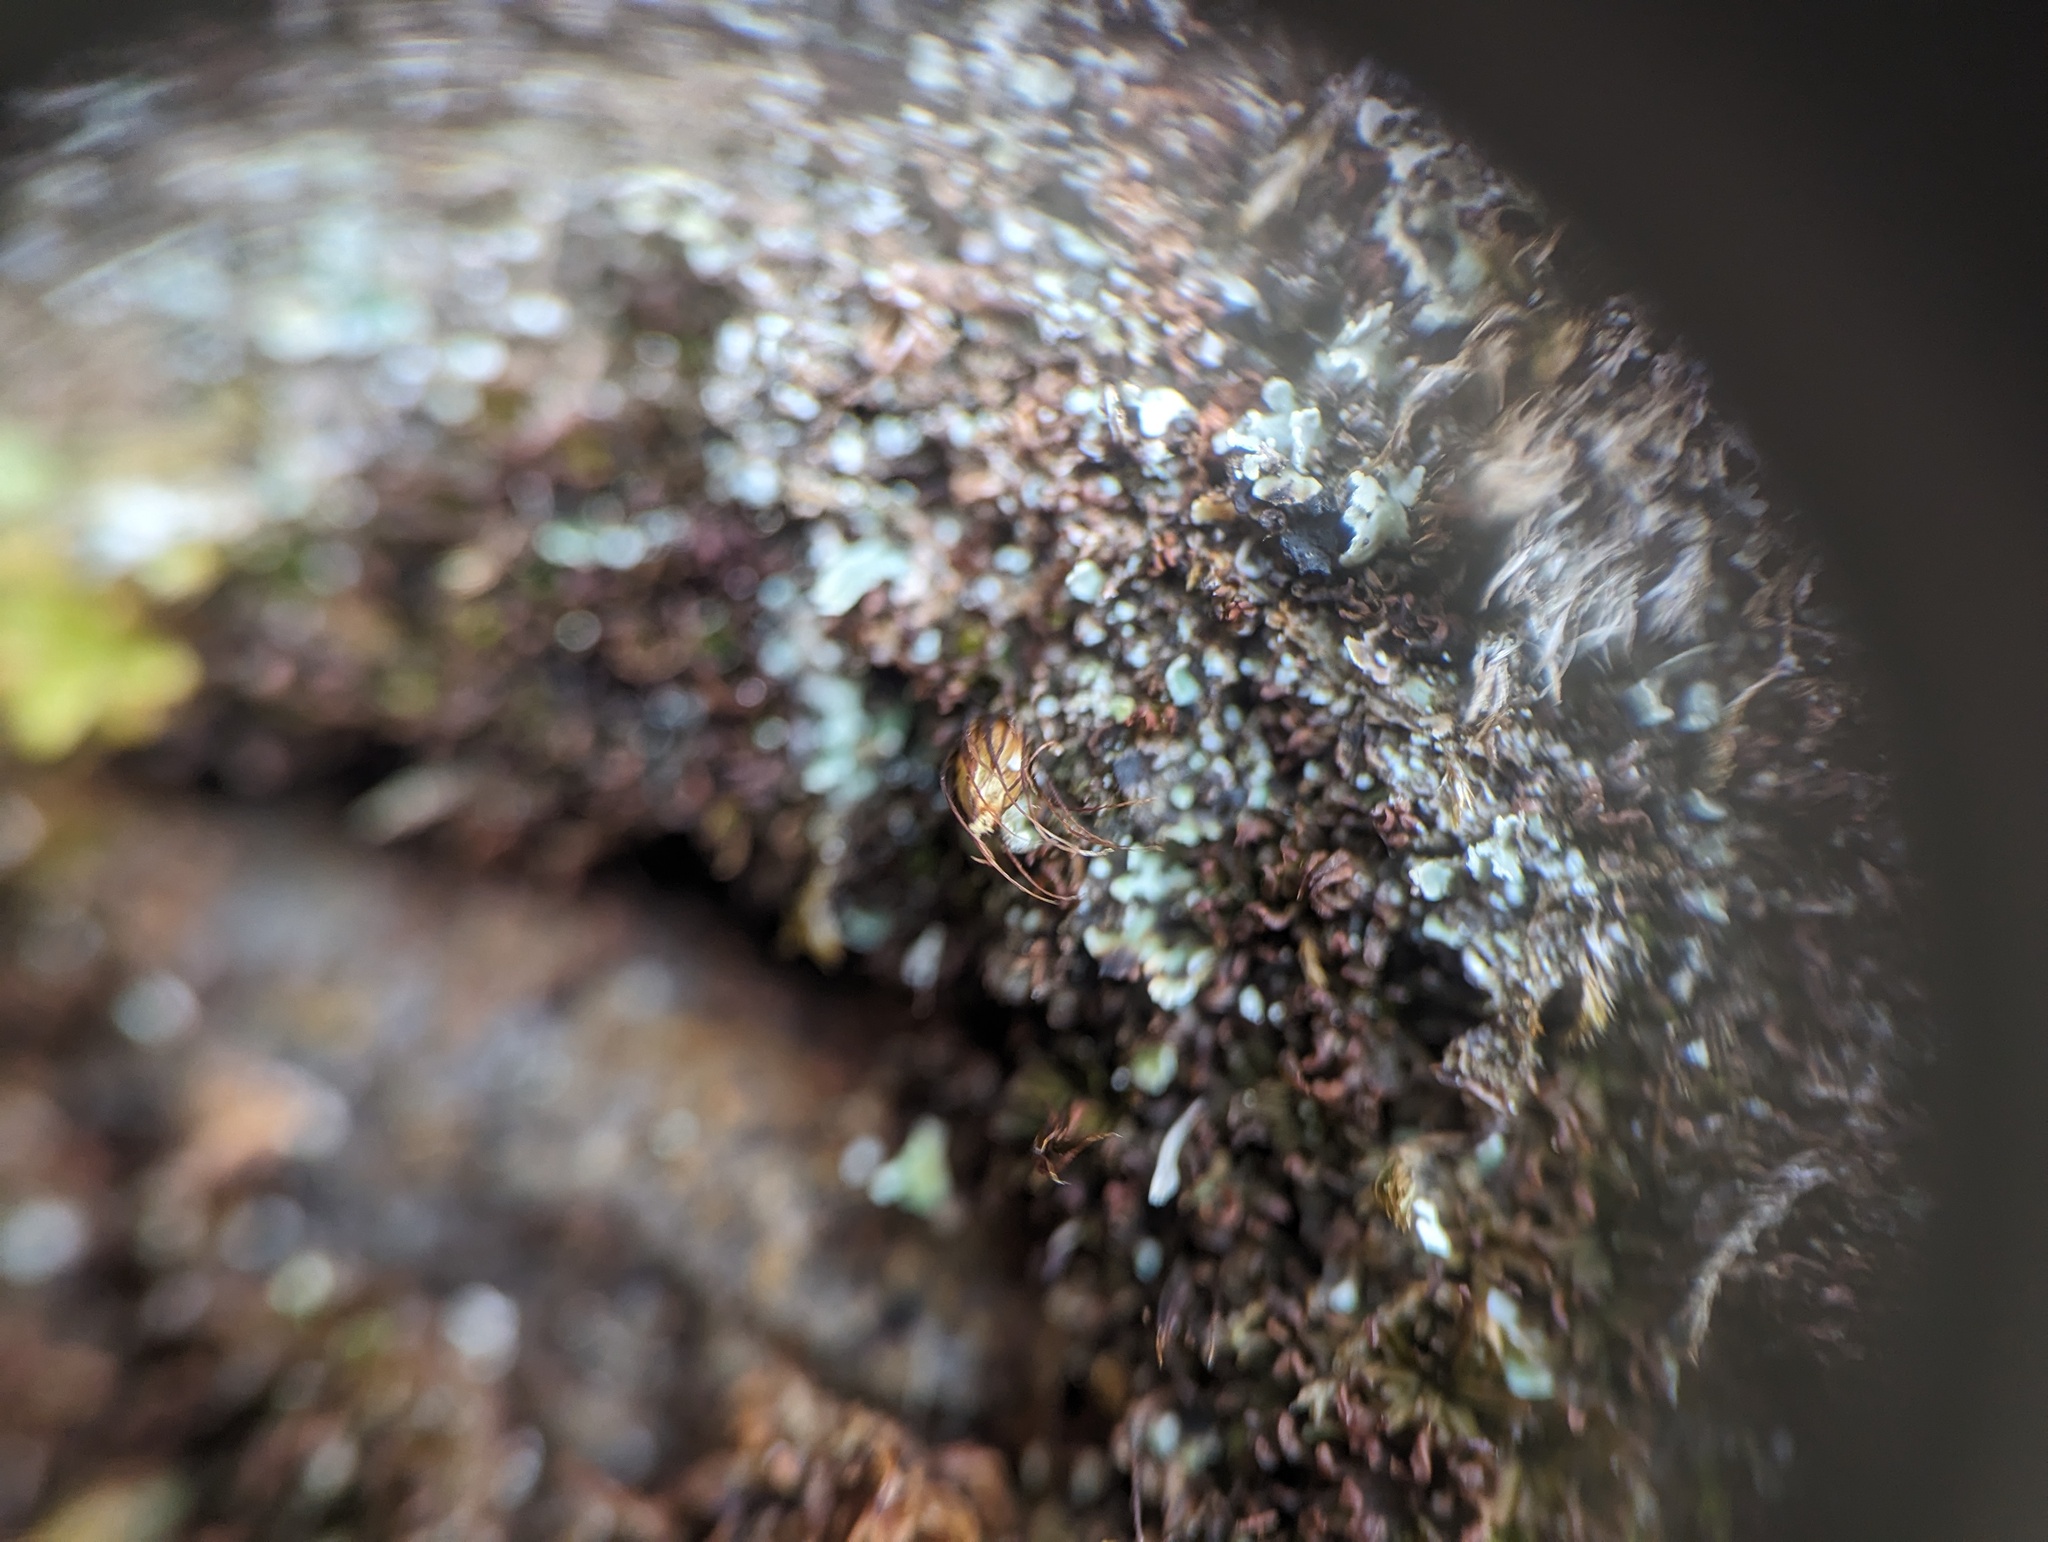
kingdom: Plantae
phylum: Bryophyta
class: Bryopsida
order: Diphysciales
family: Diphysciaceae
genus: Diphyscium
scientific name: Diphyscium foliosum
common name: Nut moss
